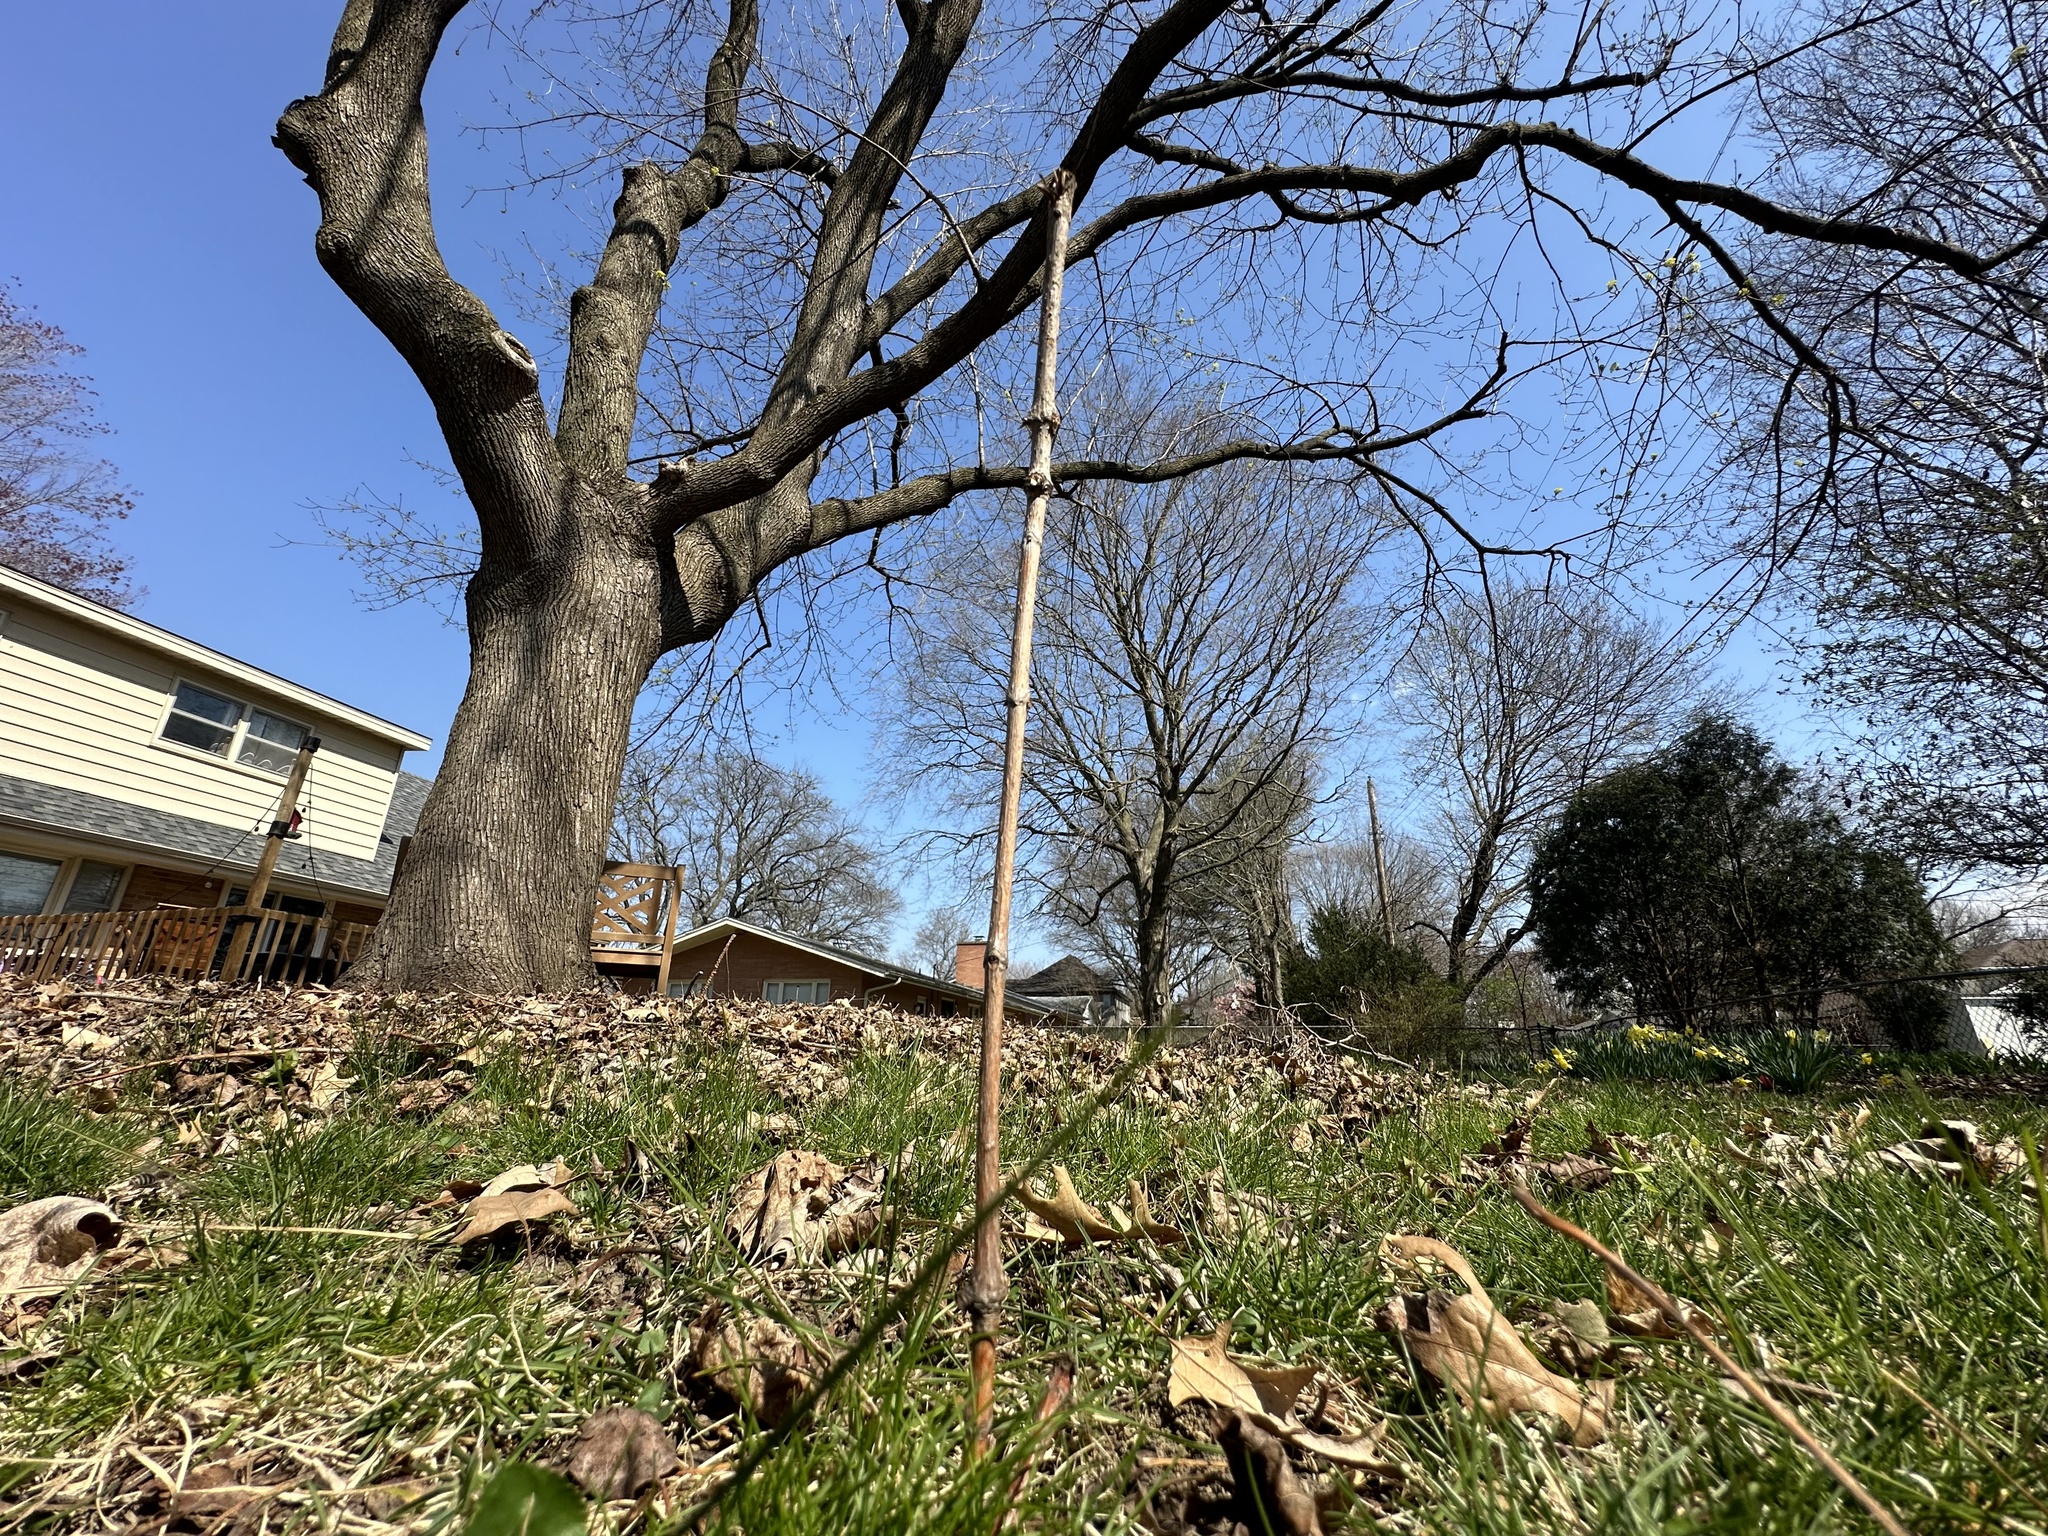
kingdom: Animalia
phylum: Arthropoda
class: Insecta
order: Hymenoptera
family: Colletidae
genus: Colletes
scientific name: Colletes inaequalis
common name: Unequal cellophane bee
